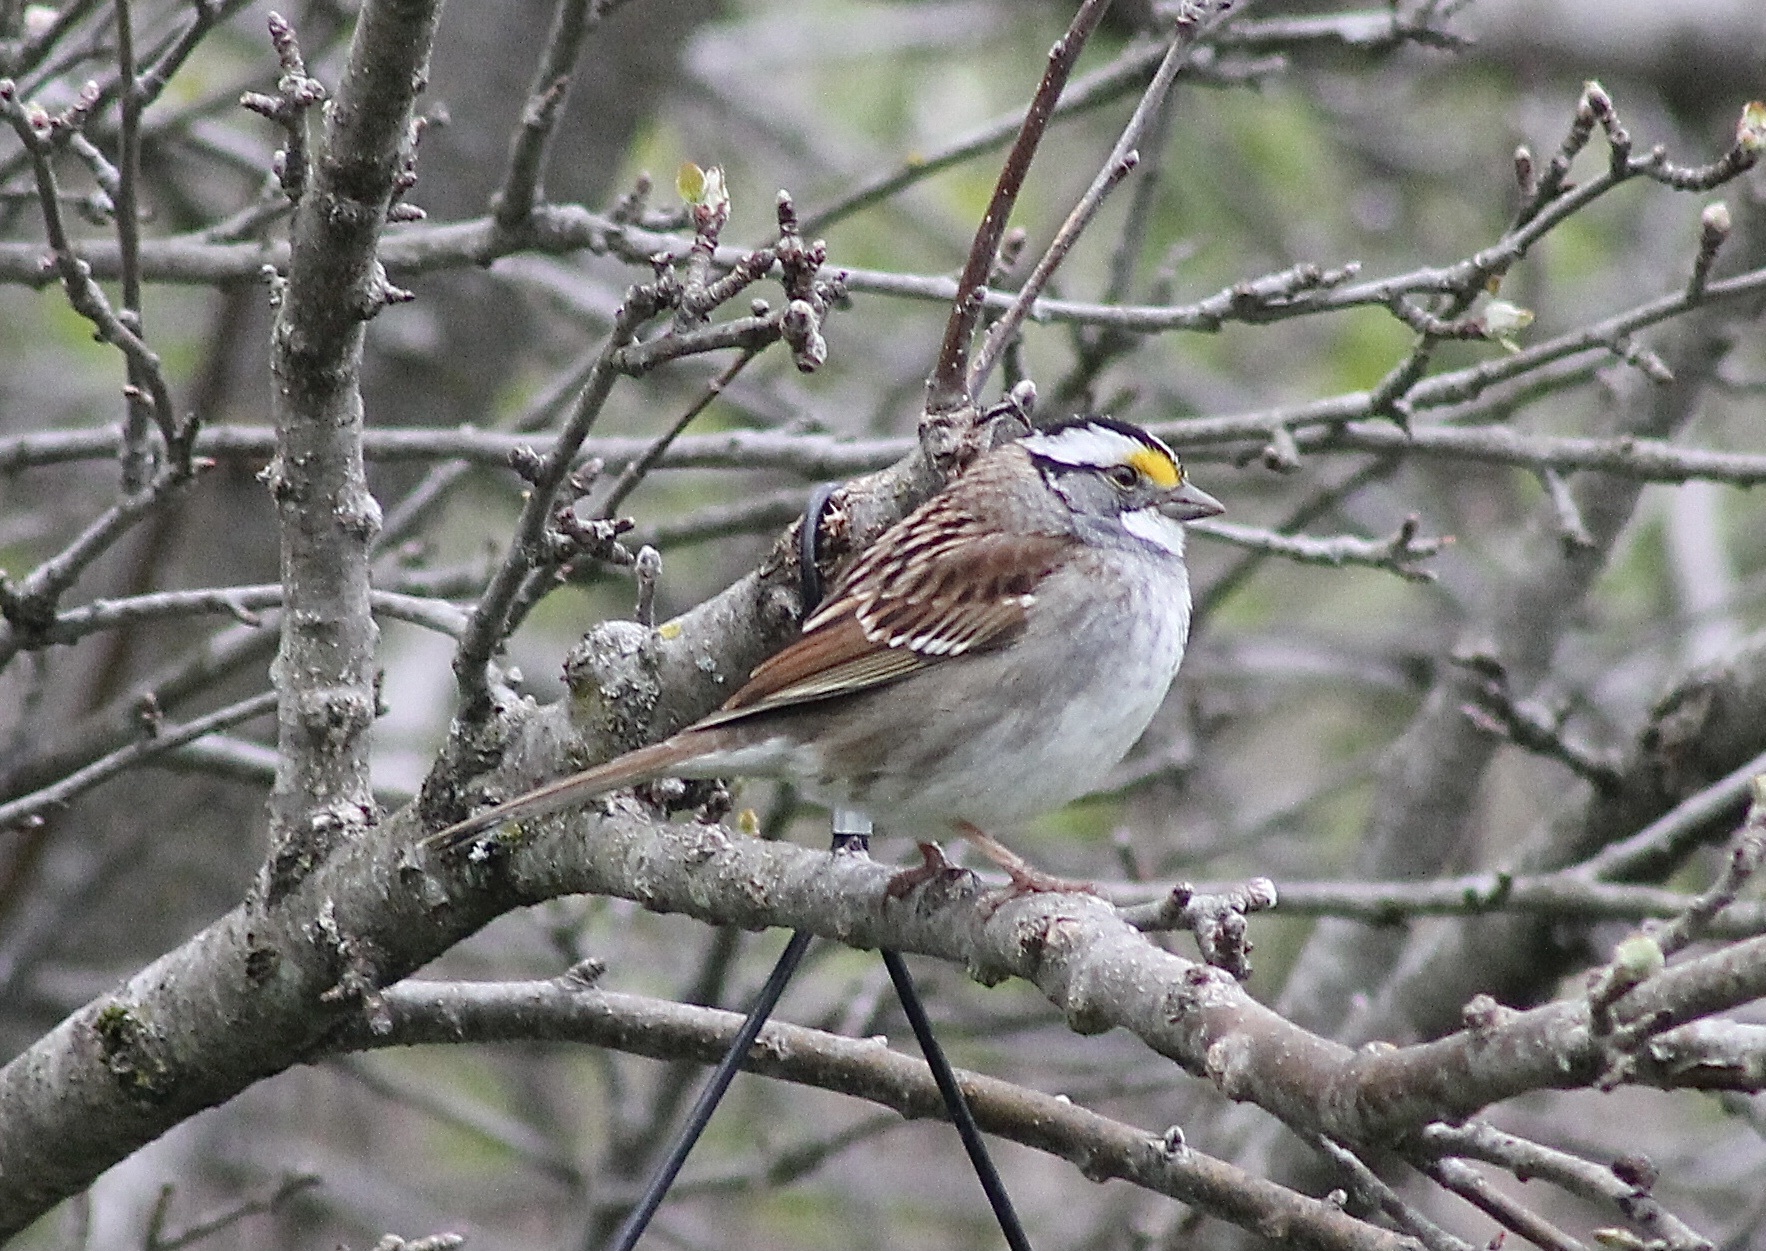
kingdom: Animalia
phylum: Chordata
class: Aves
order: Passeriformes
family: Passerellidae
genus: Zonotrichia
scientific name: Zonotrichia albicollis
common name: White-throated sparrow
